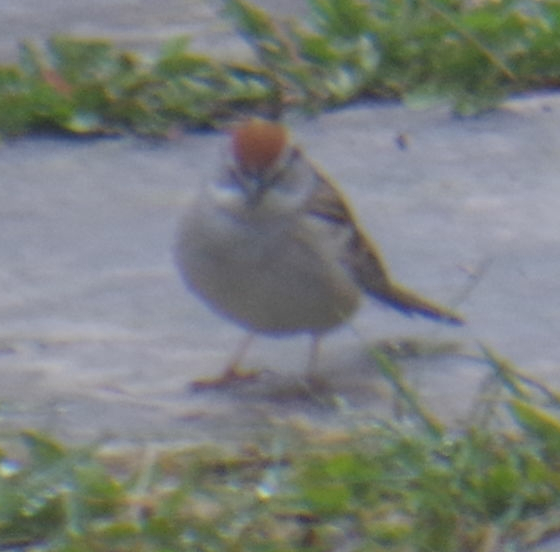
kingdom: Animalia
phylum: Chordata
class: Aves
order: Passeriformes
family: Passerellidae
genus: Spizella
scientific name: Spizella passerina
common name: Chipping sparrow
